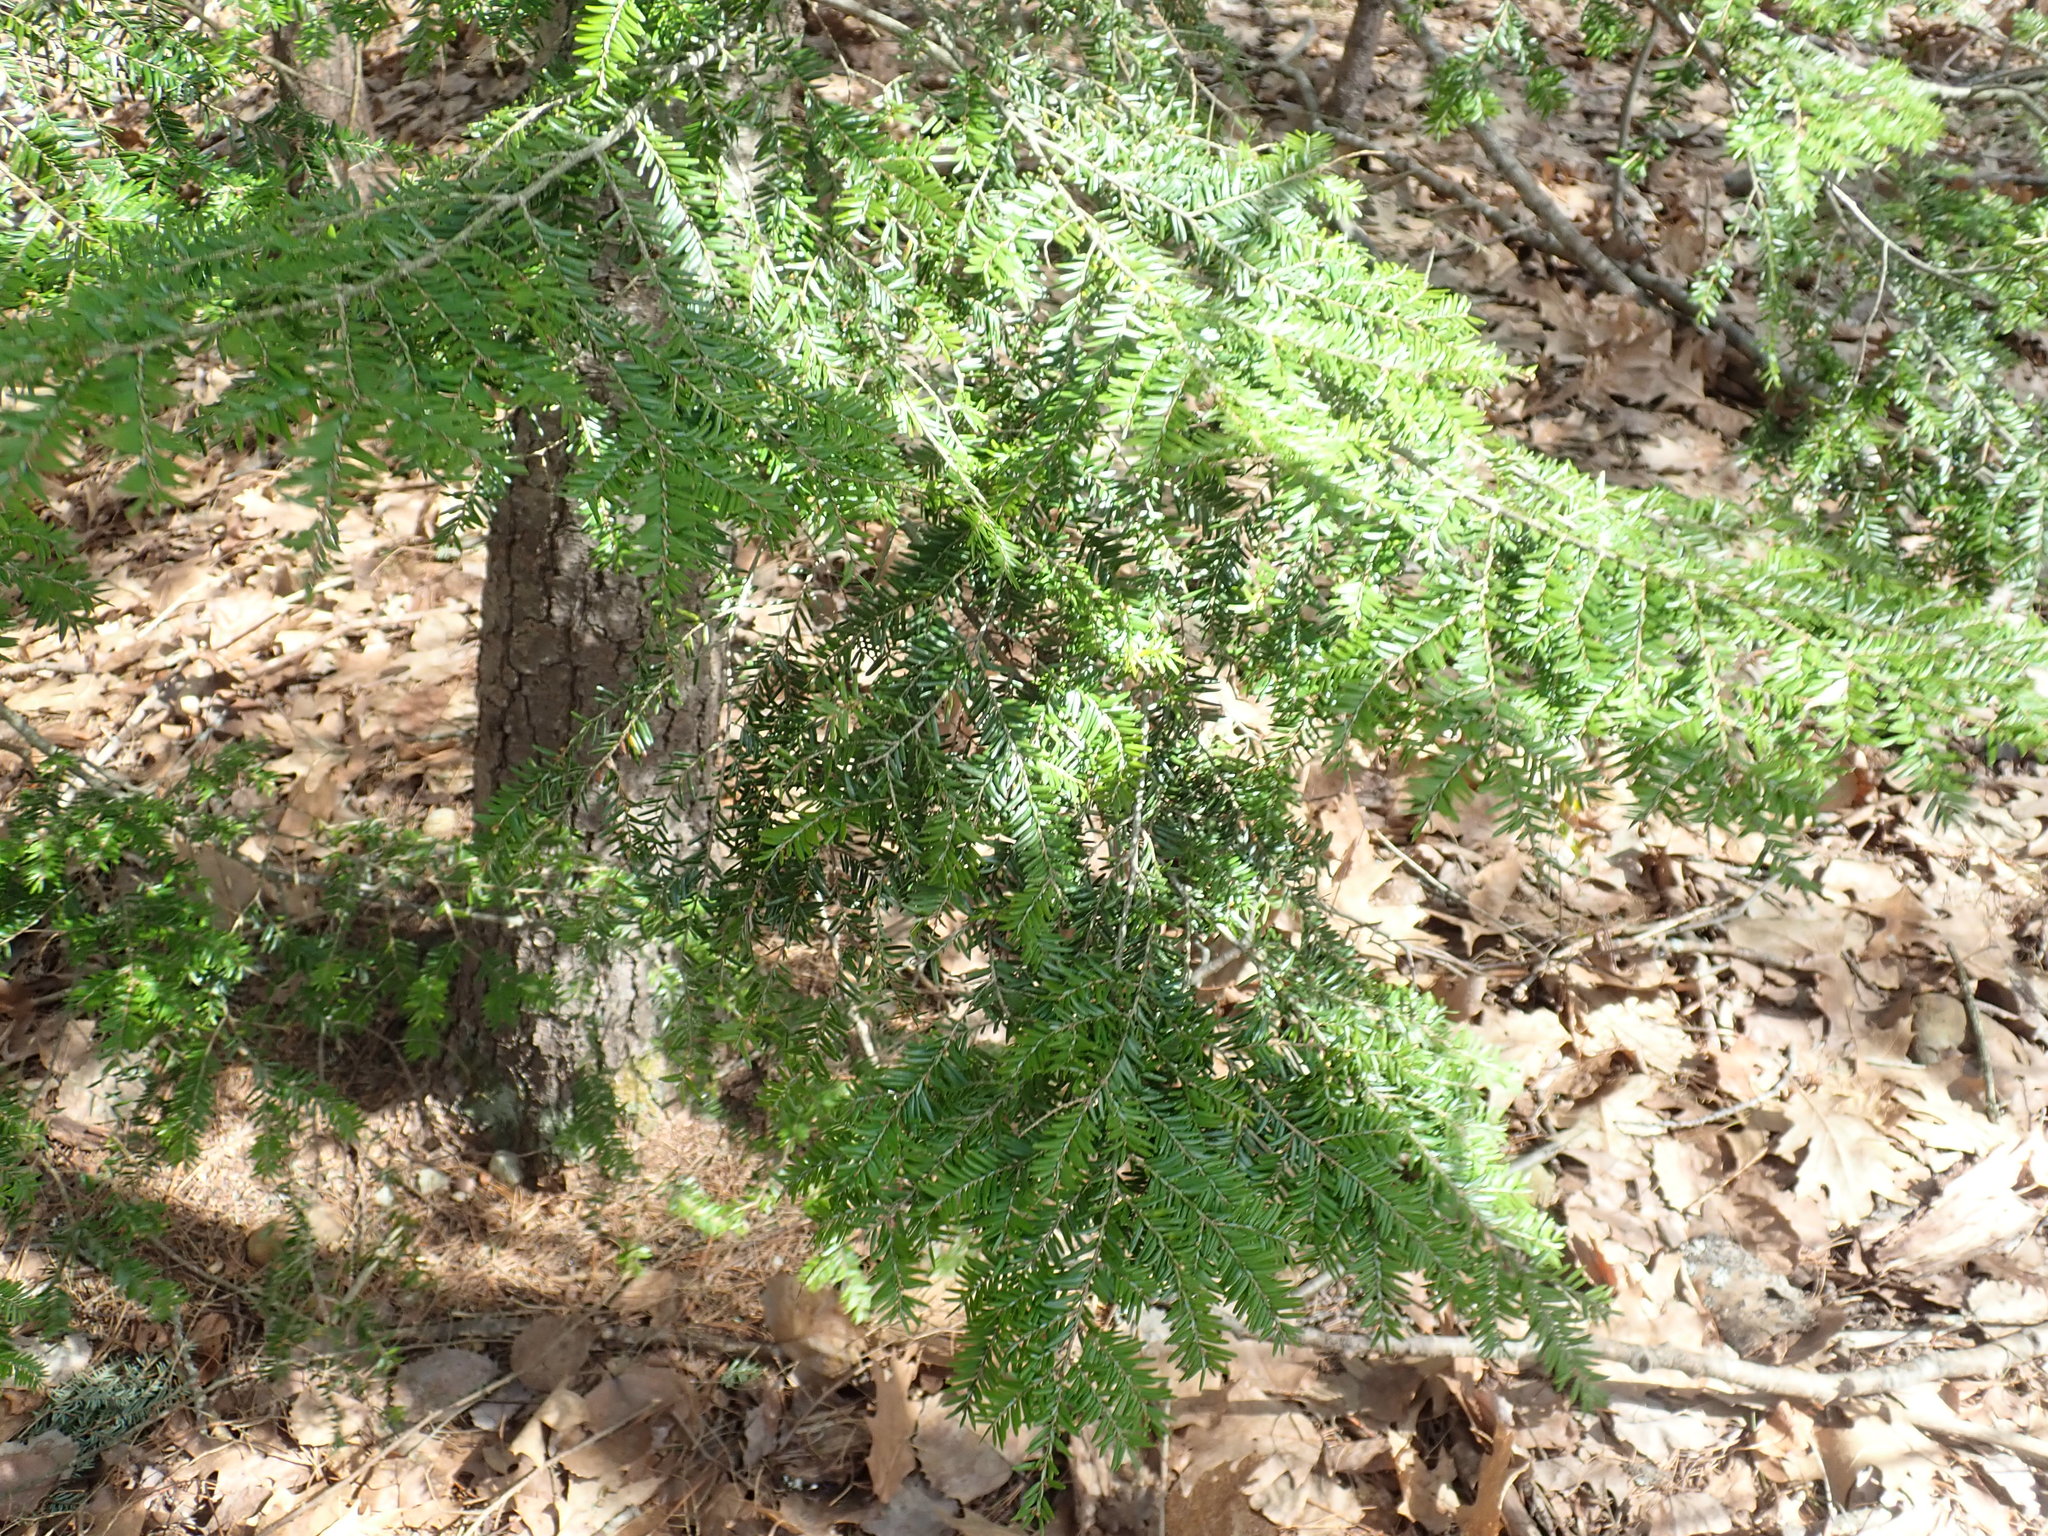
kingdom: Plantae
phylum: Tracheophyta
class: Pinopsida
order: Pinales
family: Pinaceae
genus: Tsuga
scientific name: Tsuga canadensis
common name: Eastern hemlock
